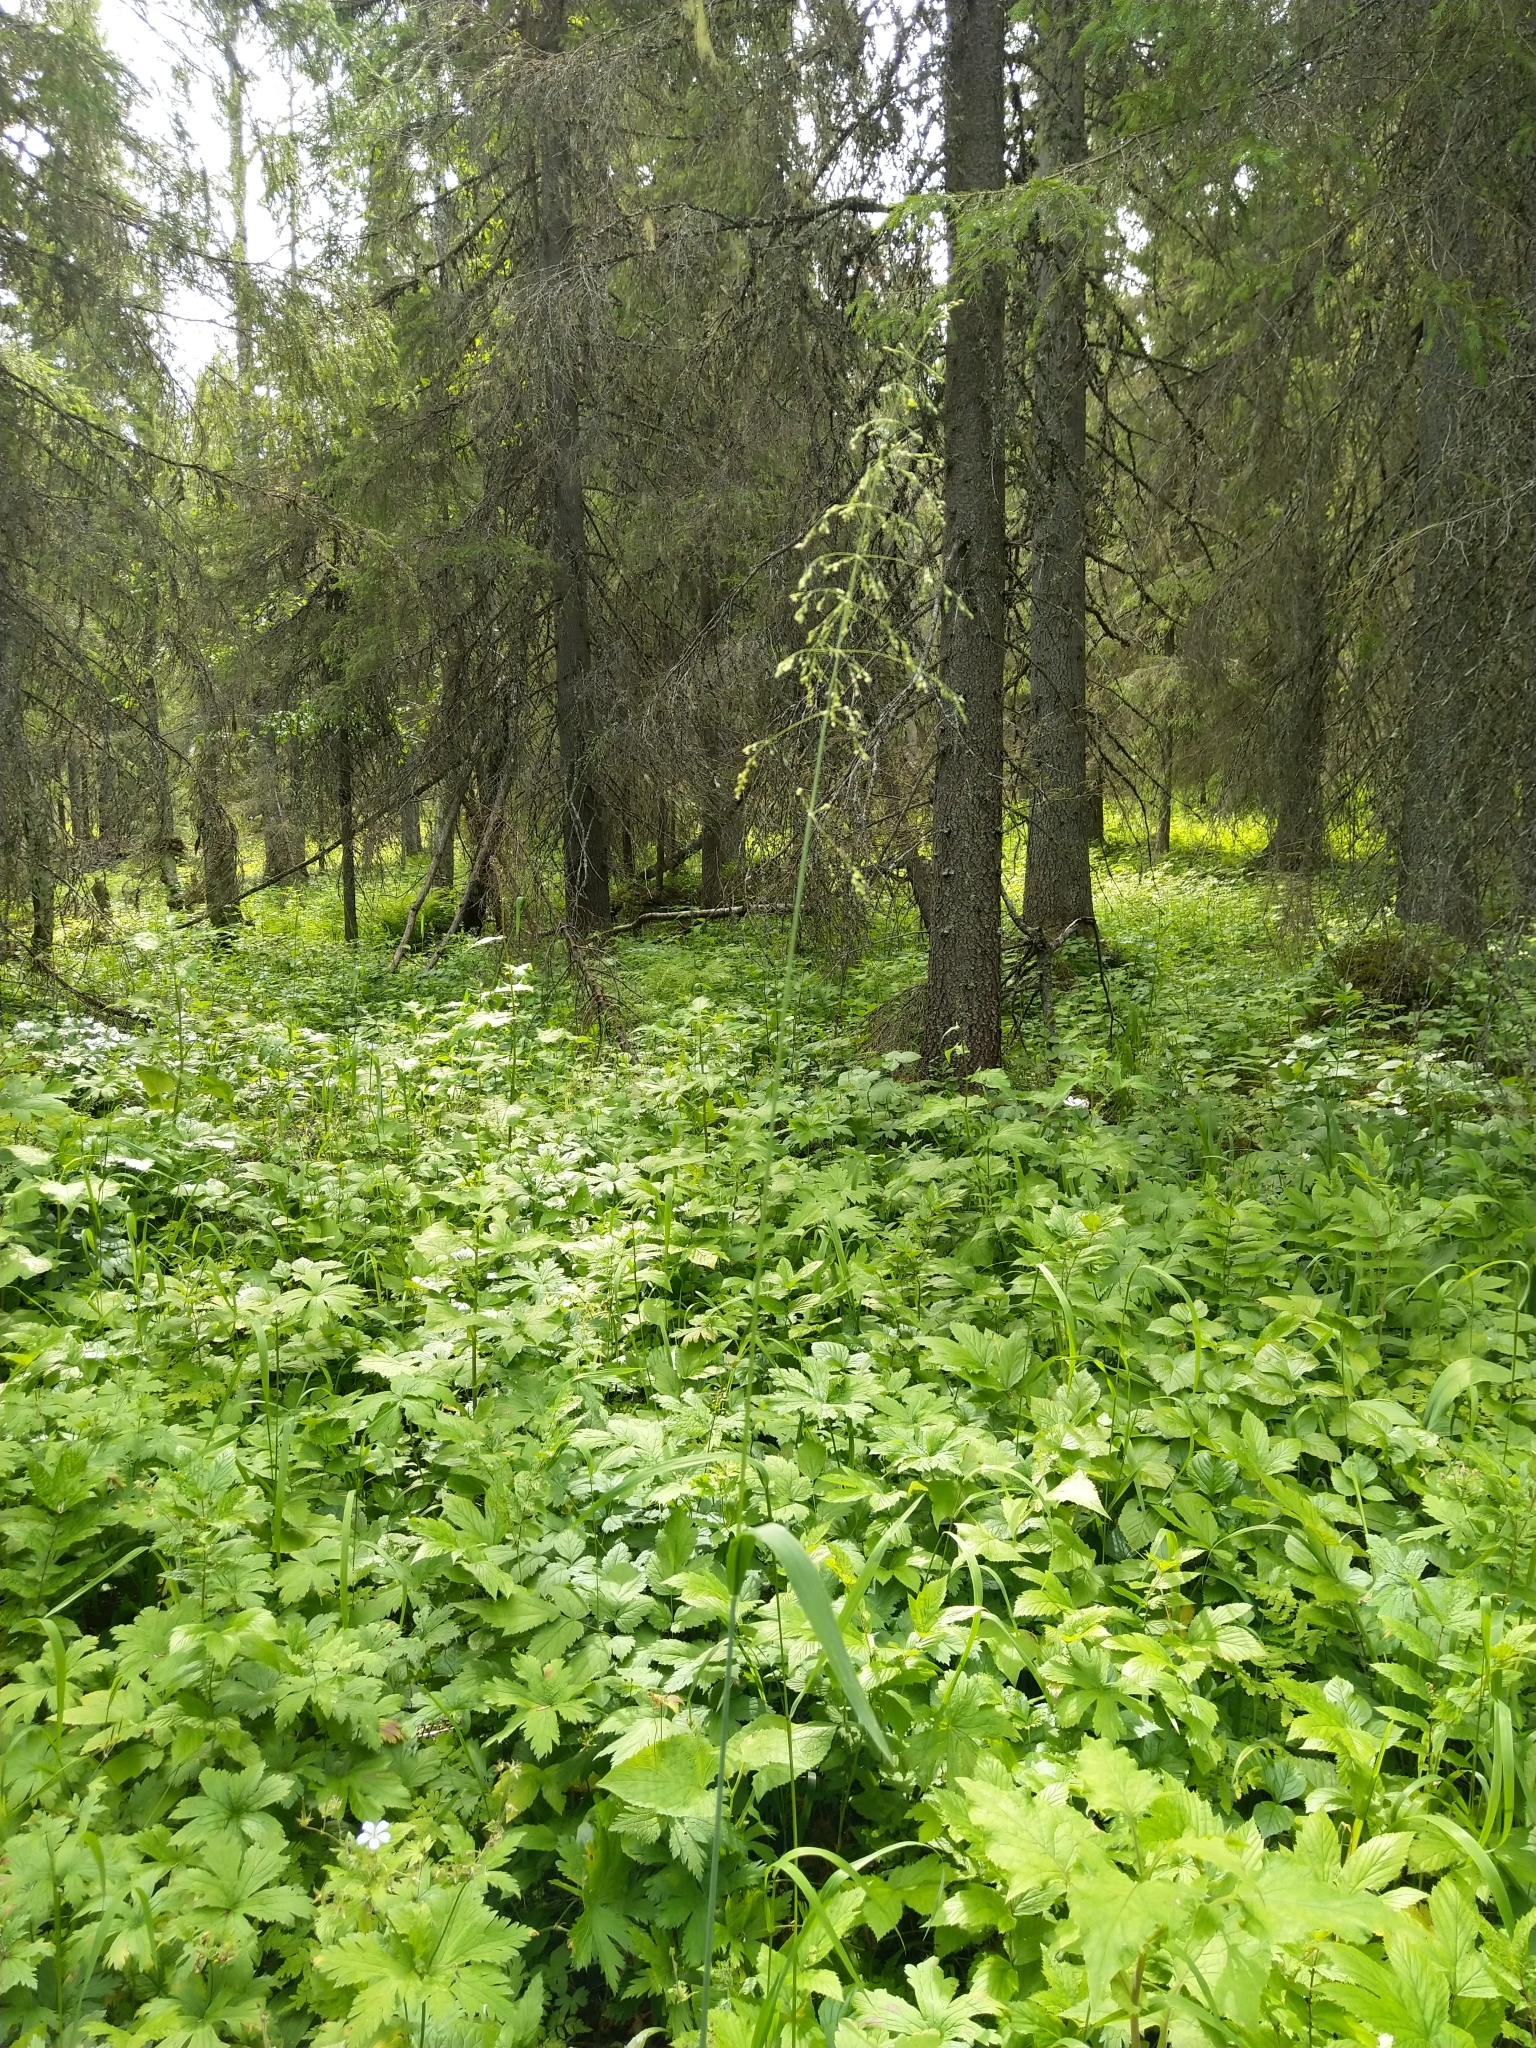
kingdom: Plantae
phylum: Tracheophyta
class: Liliopsida
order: Poales
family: Poaceae
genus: Milium
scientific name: Milium effusum
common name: Wood millet
